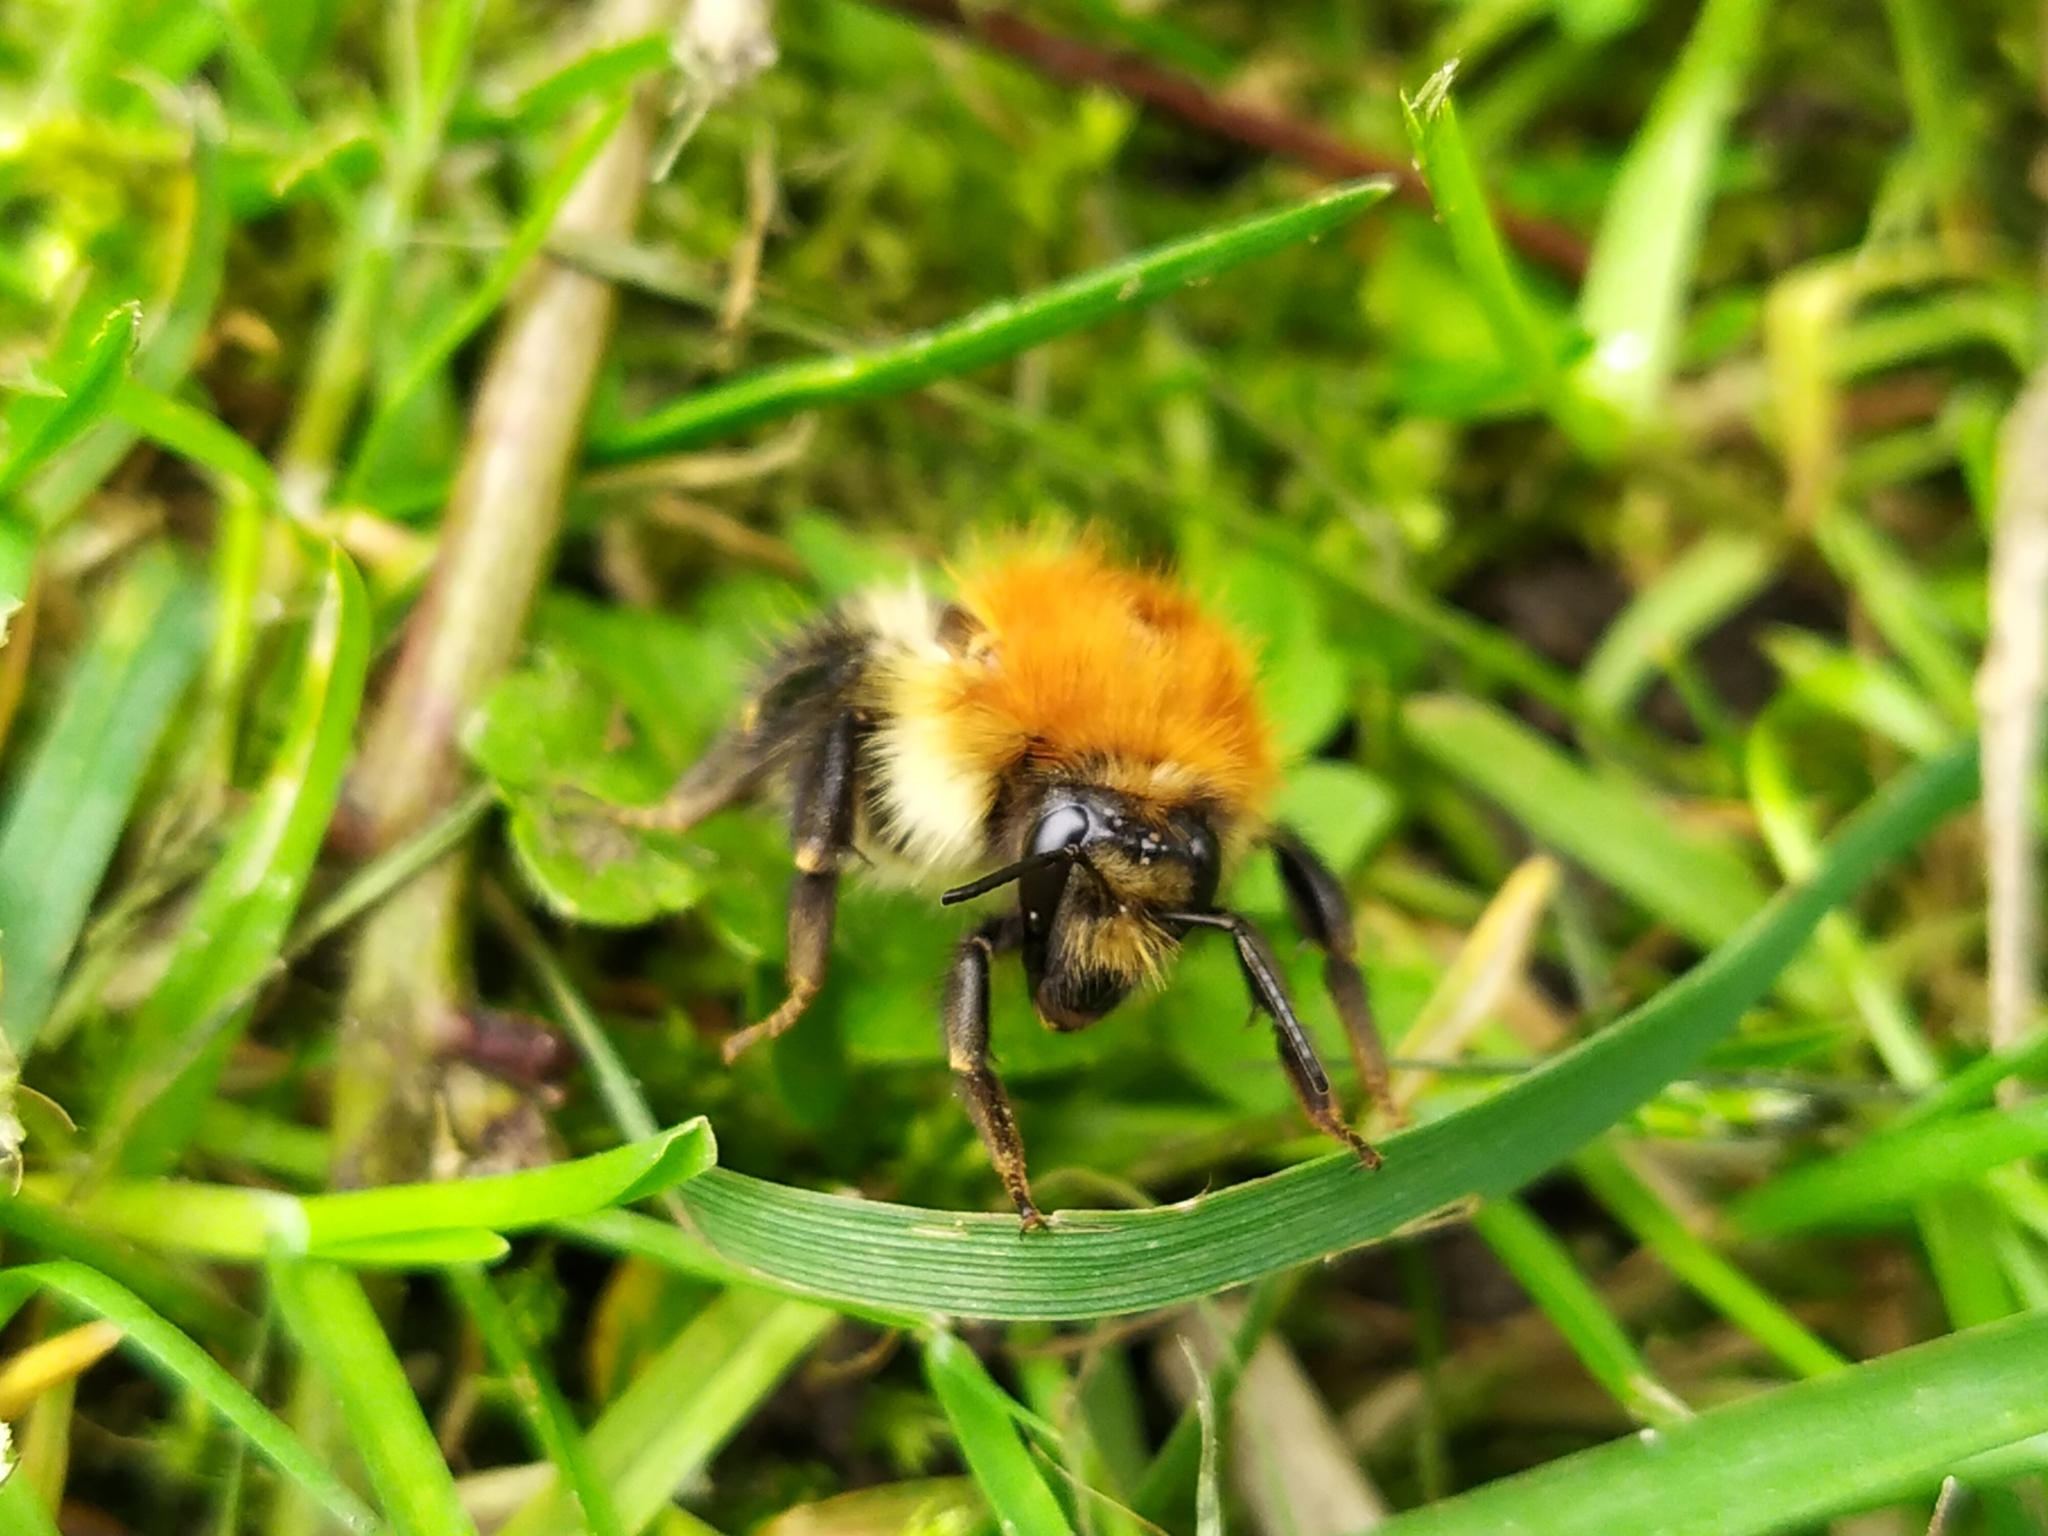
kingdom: Animalia
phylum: Arthropoda
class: Insecta
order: Hymenoptera
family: Apidae
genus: Bombus
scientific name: Bombus pascuorum
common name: Common carder bee
